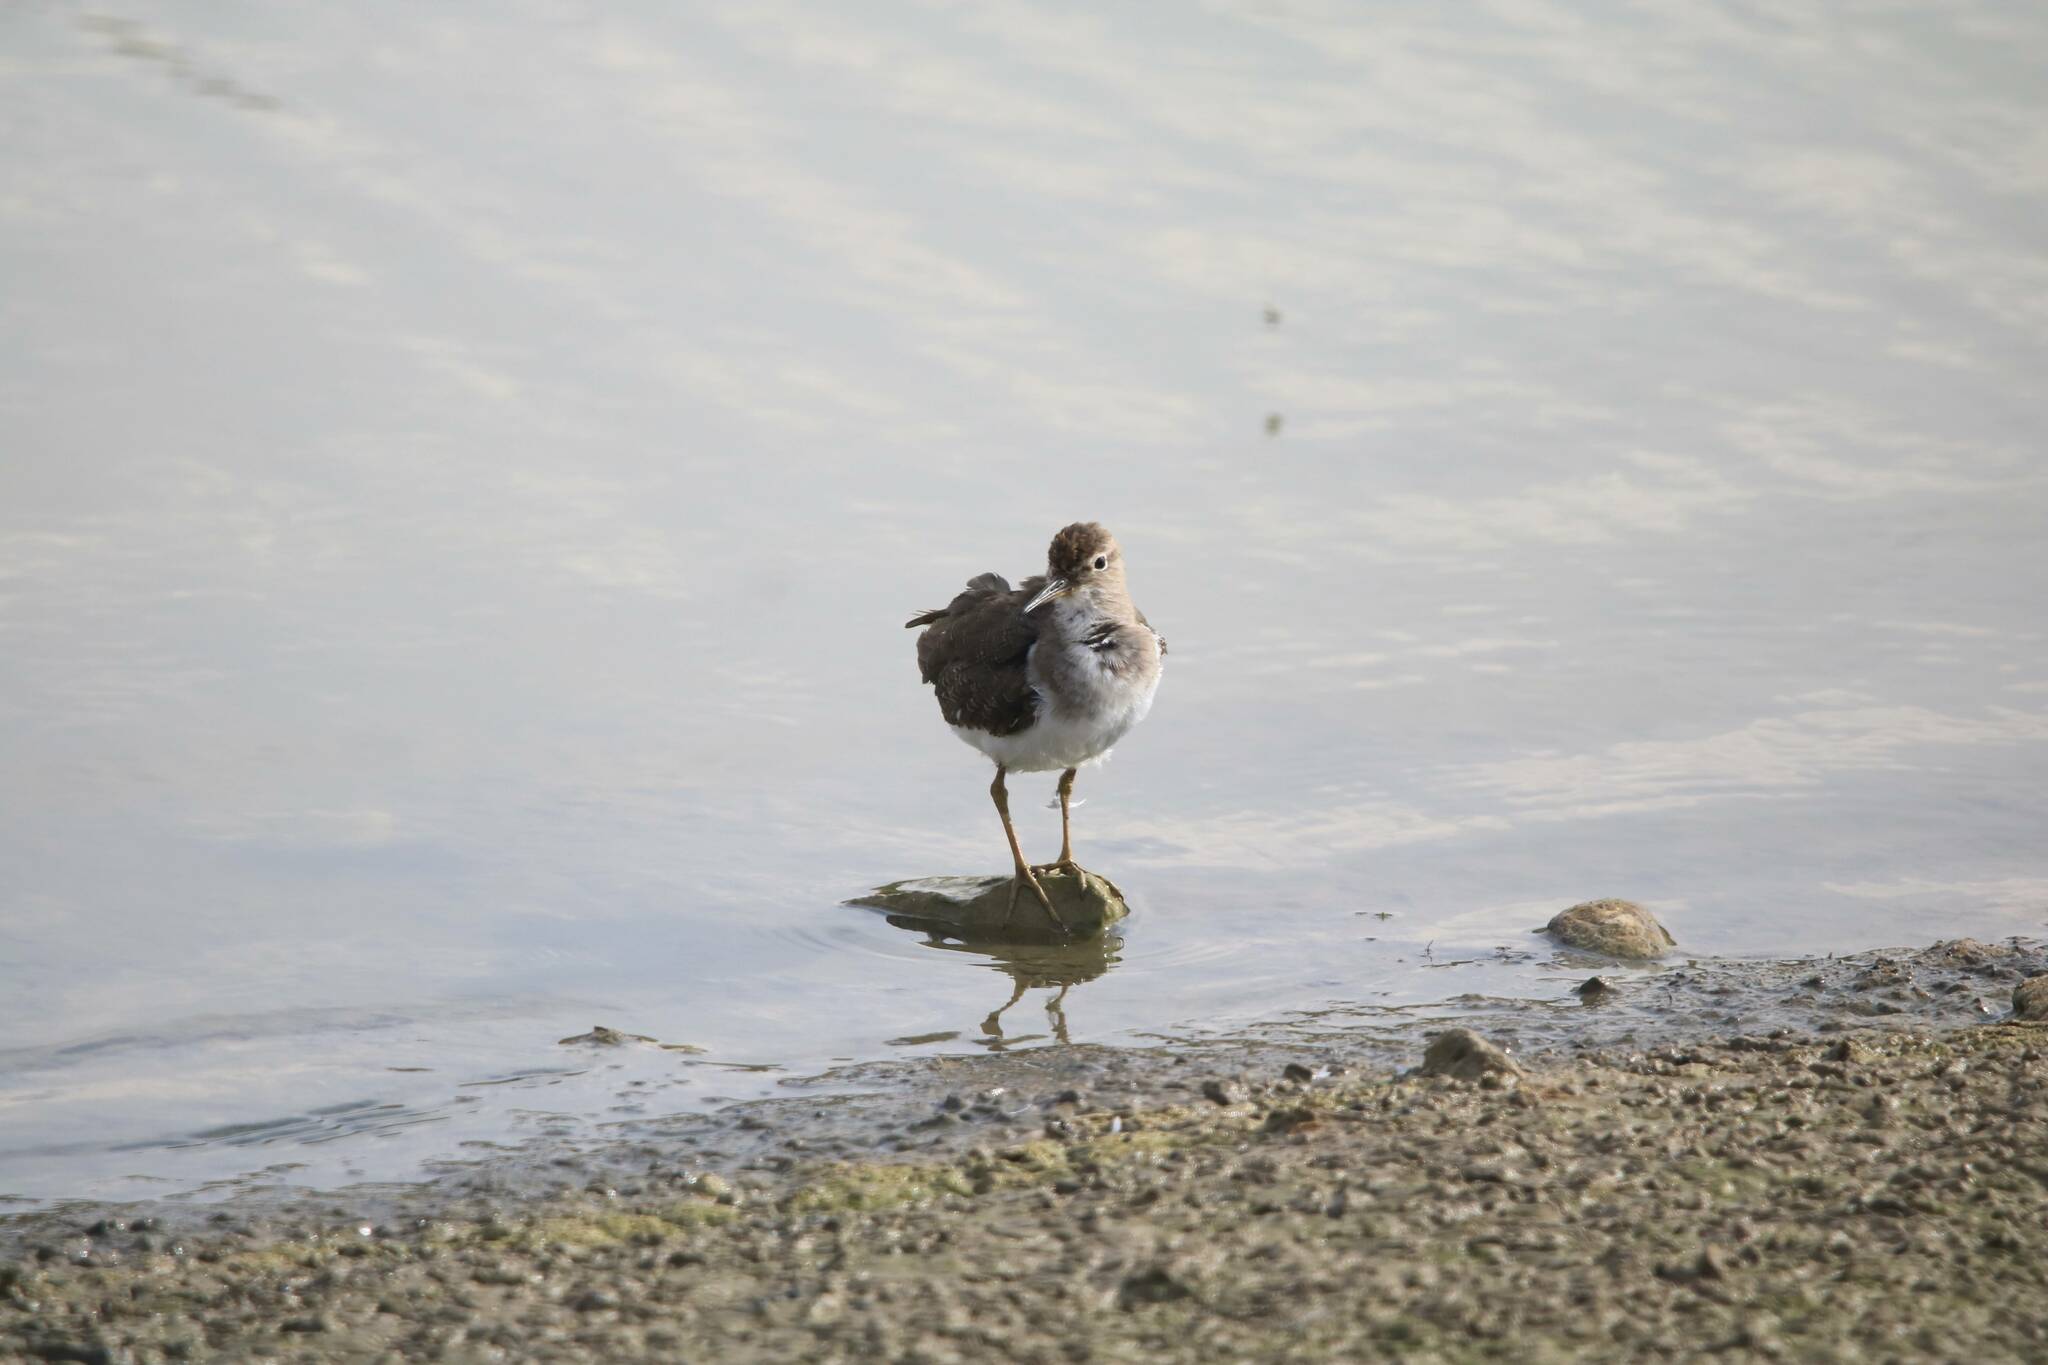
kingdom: Animalia
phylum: Chordata
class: Aves
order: Charadriiformes
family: Scolopacidae
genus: Actitis
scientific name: Actitis hypoleucos
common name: Common sandpiper
